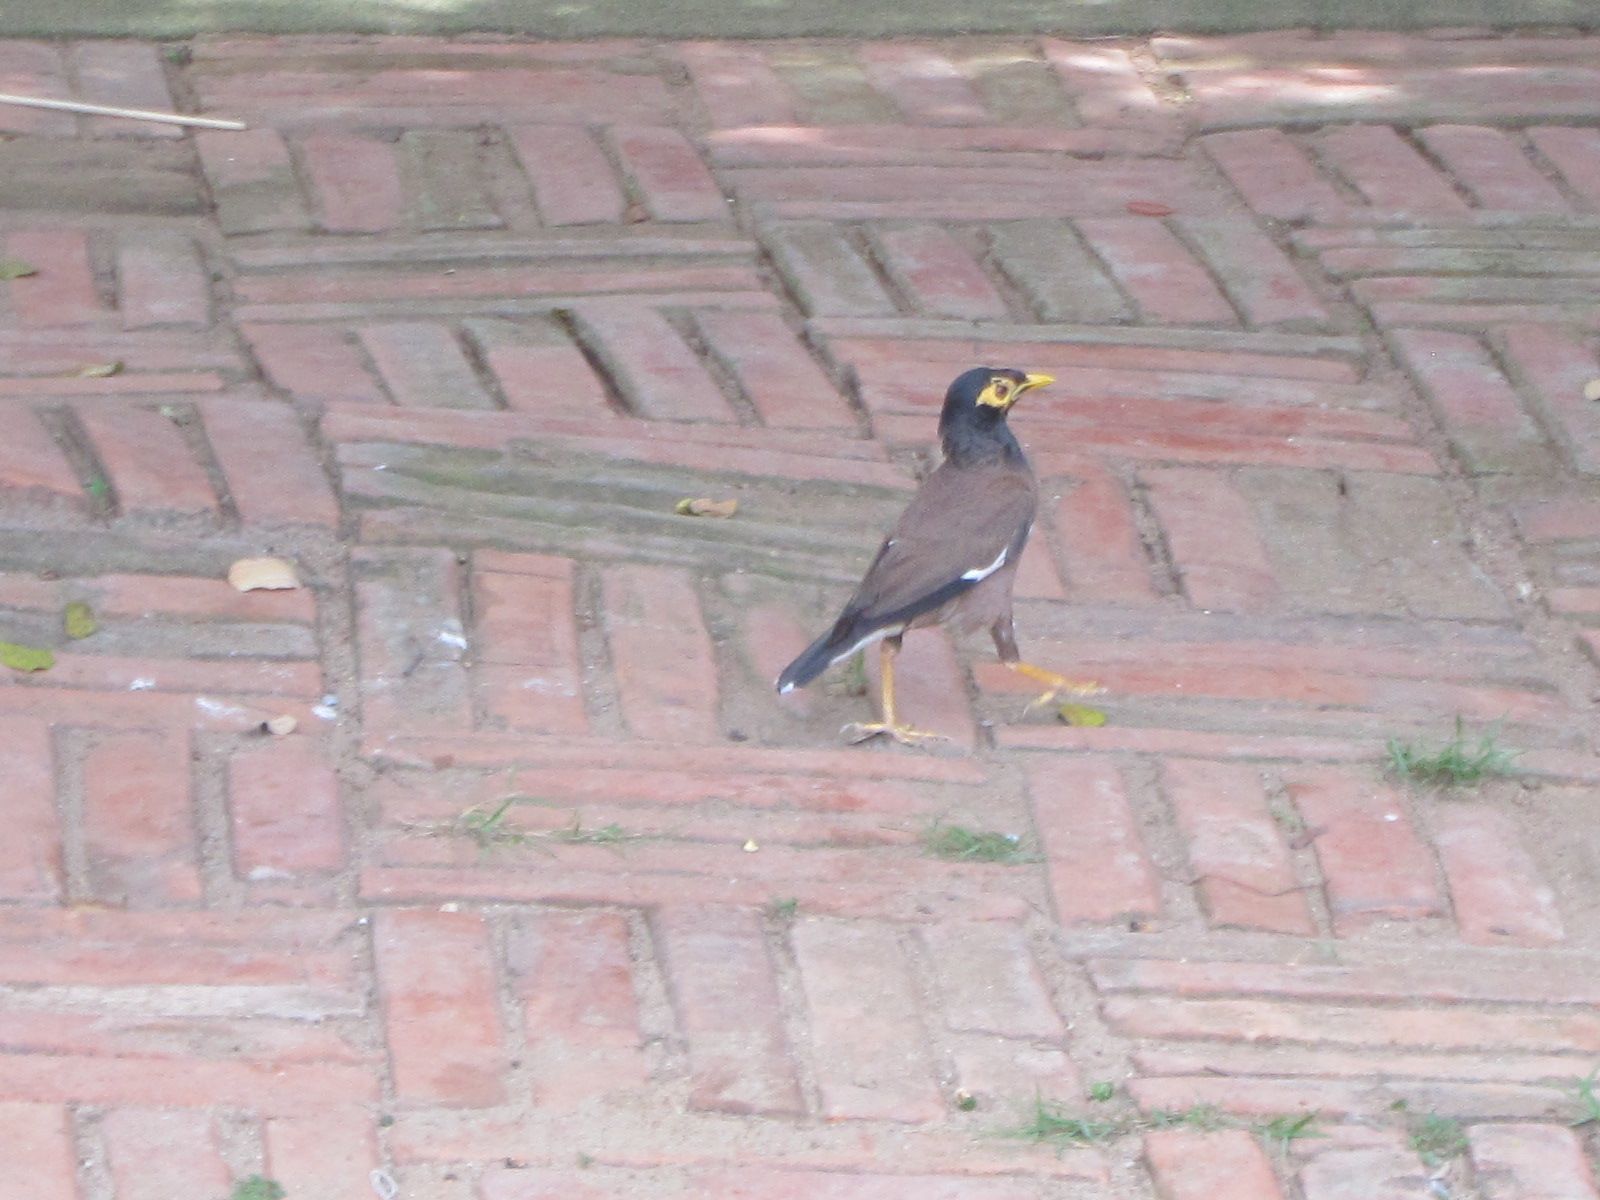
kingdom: Animalia
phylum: Chordata
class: Aves
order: Passeriformes
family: Sturnidae
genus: Acridotheres
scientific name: Acridotheres tristis
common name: Common myna
